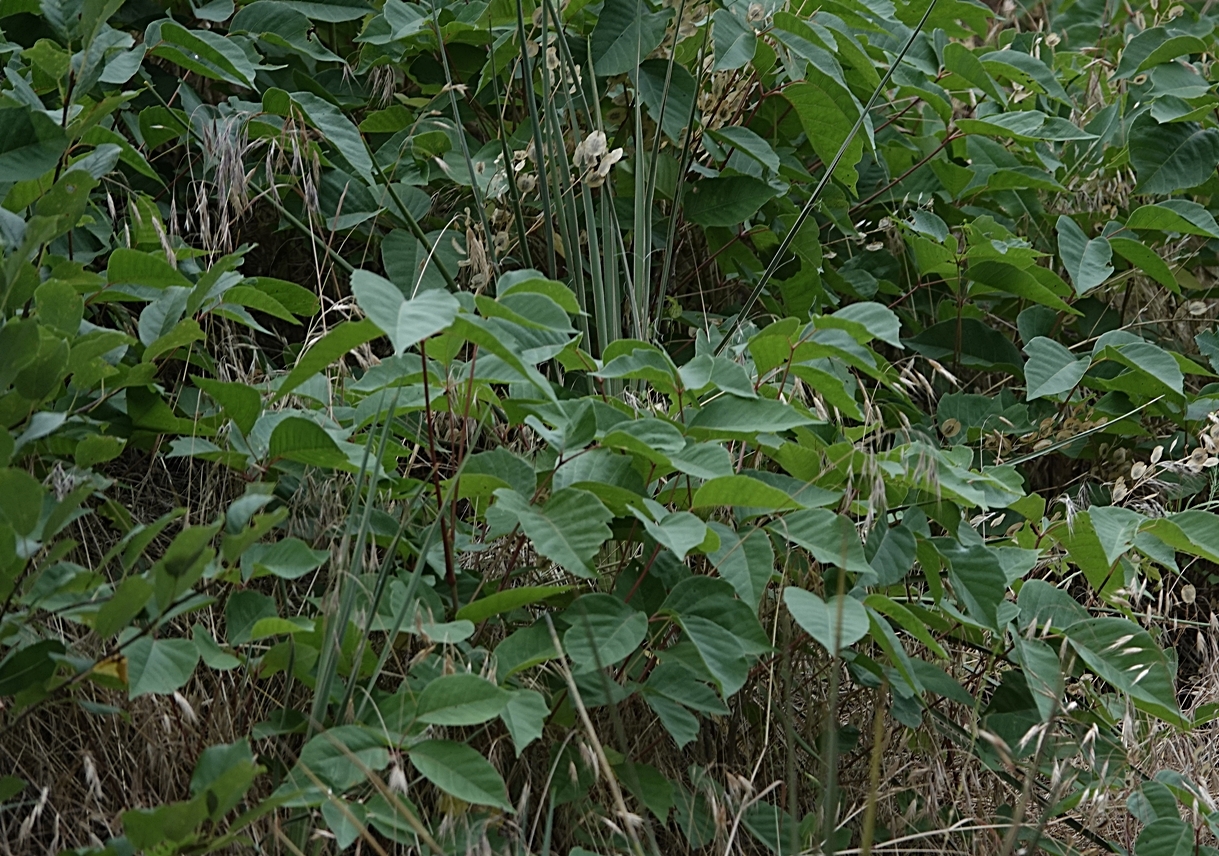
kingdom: Plantae
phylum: Tracheophyta
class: Magnoliopsida
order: Sapindales
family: Anacardiaceae
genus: Toxicodendron
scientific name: Toxicodendron rydbergii
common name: Rydberg's poison-ivy
